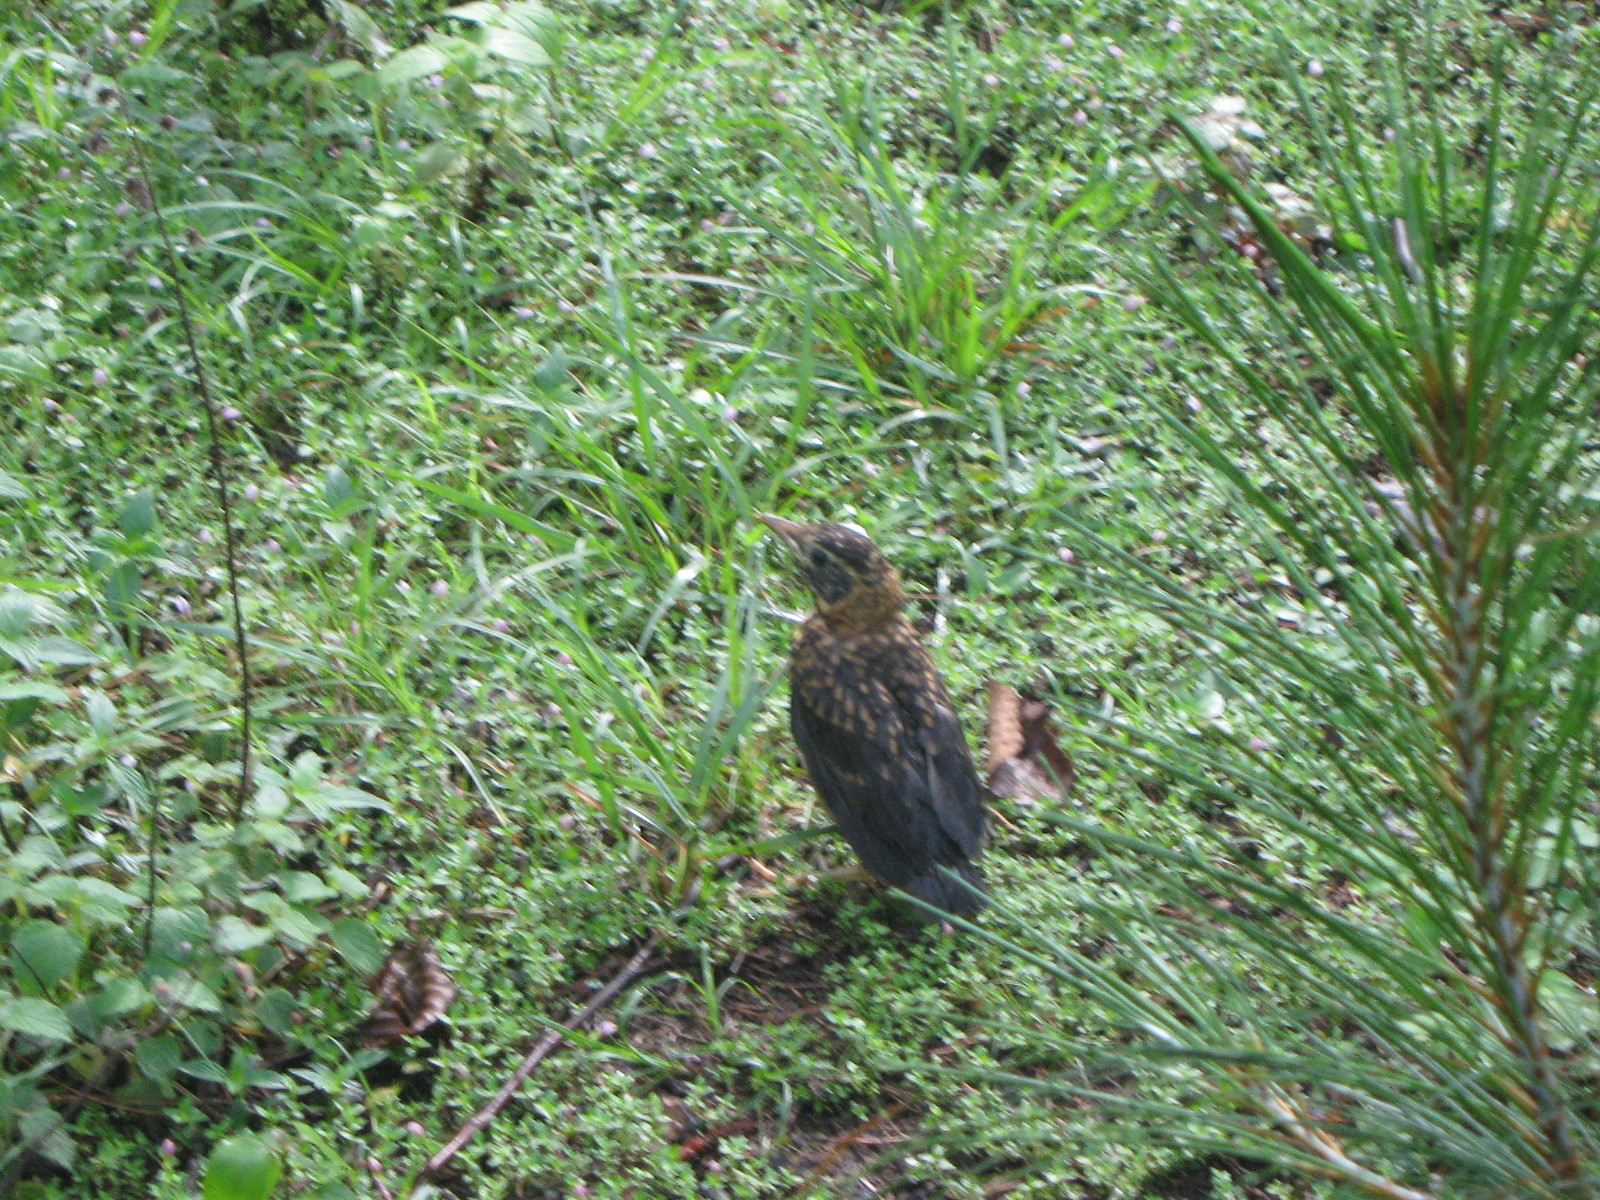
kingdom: Animalia
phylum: Chordata
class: Aves
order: Passeriformes
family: Turdidae
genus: Turdus
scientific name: Turdus rufitorques
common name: Rufous-collared thrush
